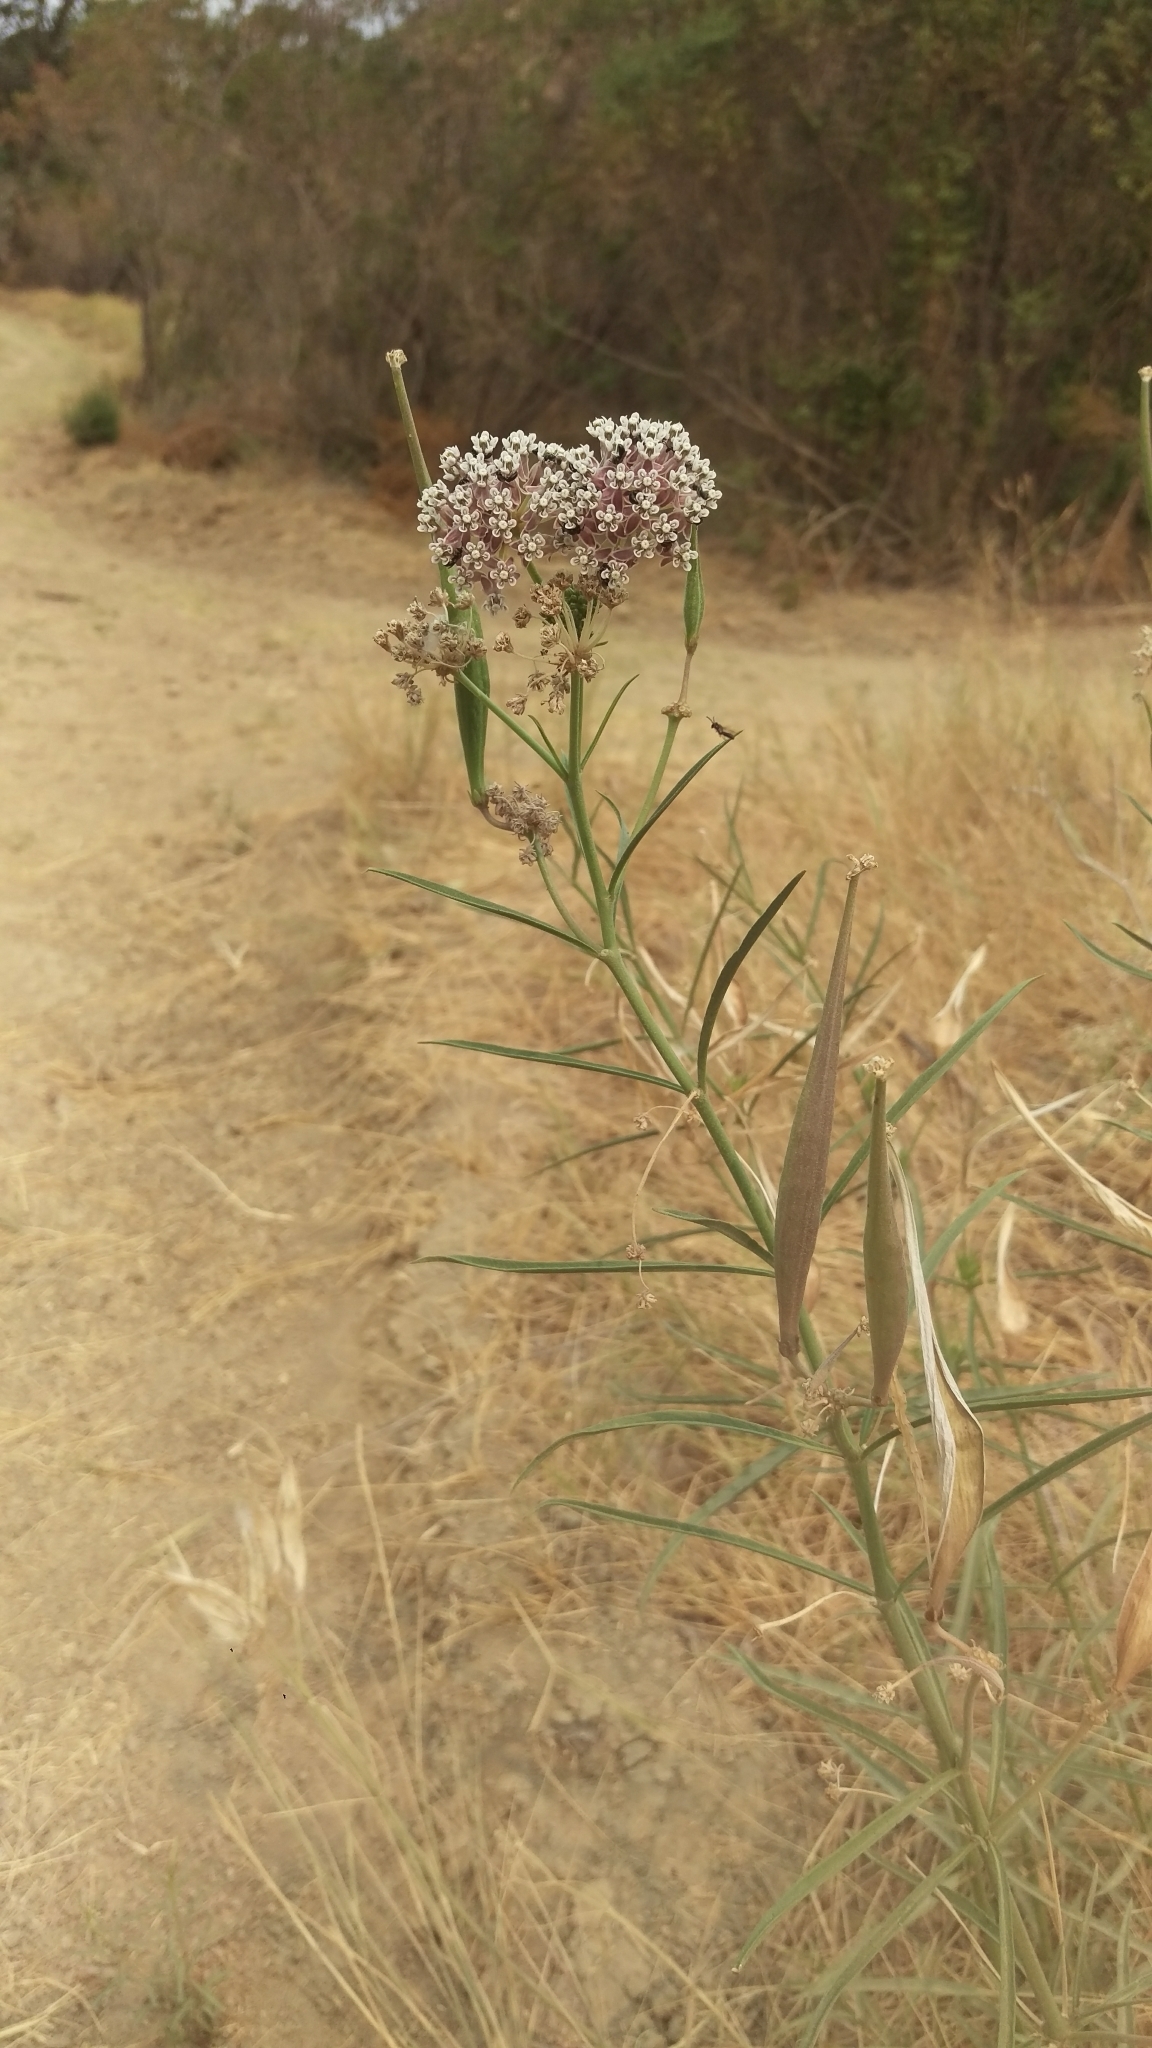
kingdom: Plantae
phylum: Tracheophyta
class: Magnoliopsida
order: Gentianales
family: Apocynaceae
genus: Asclepias
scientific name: Asclepias fascicularis
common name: Mexican milkweed
